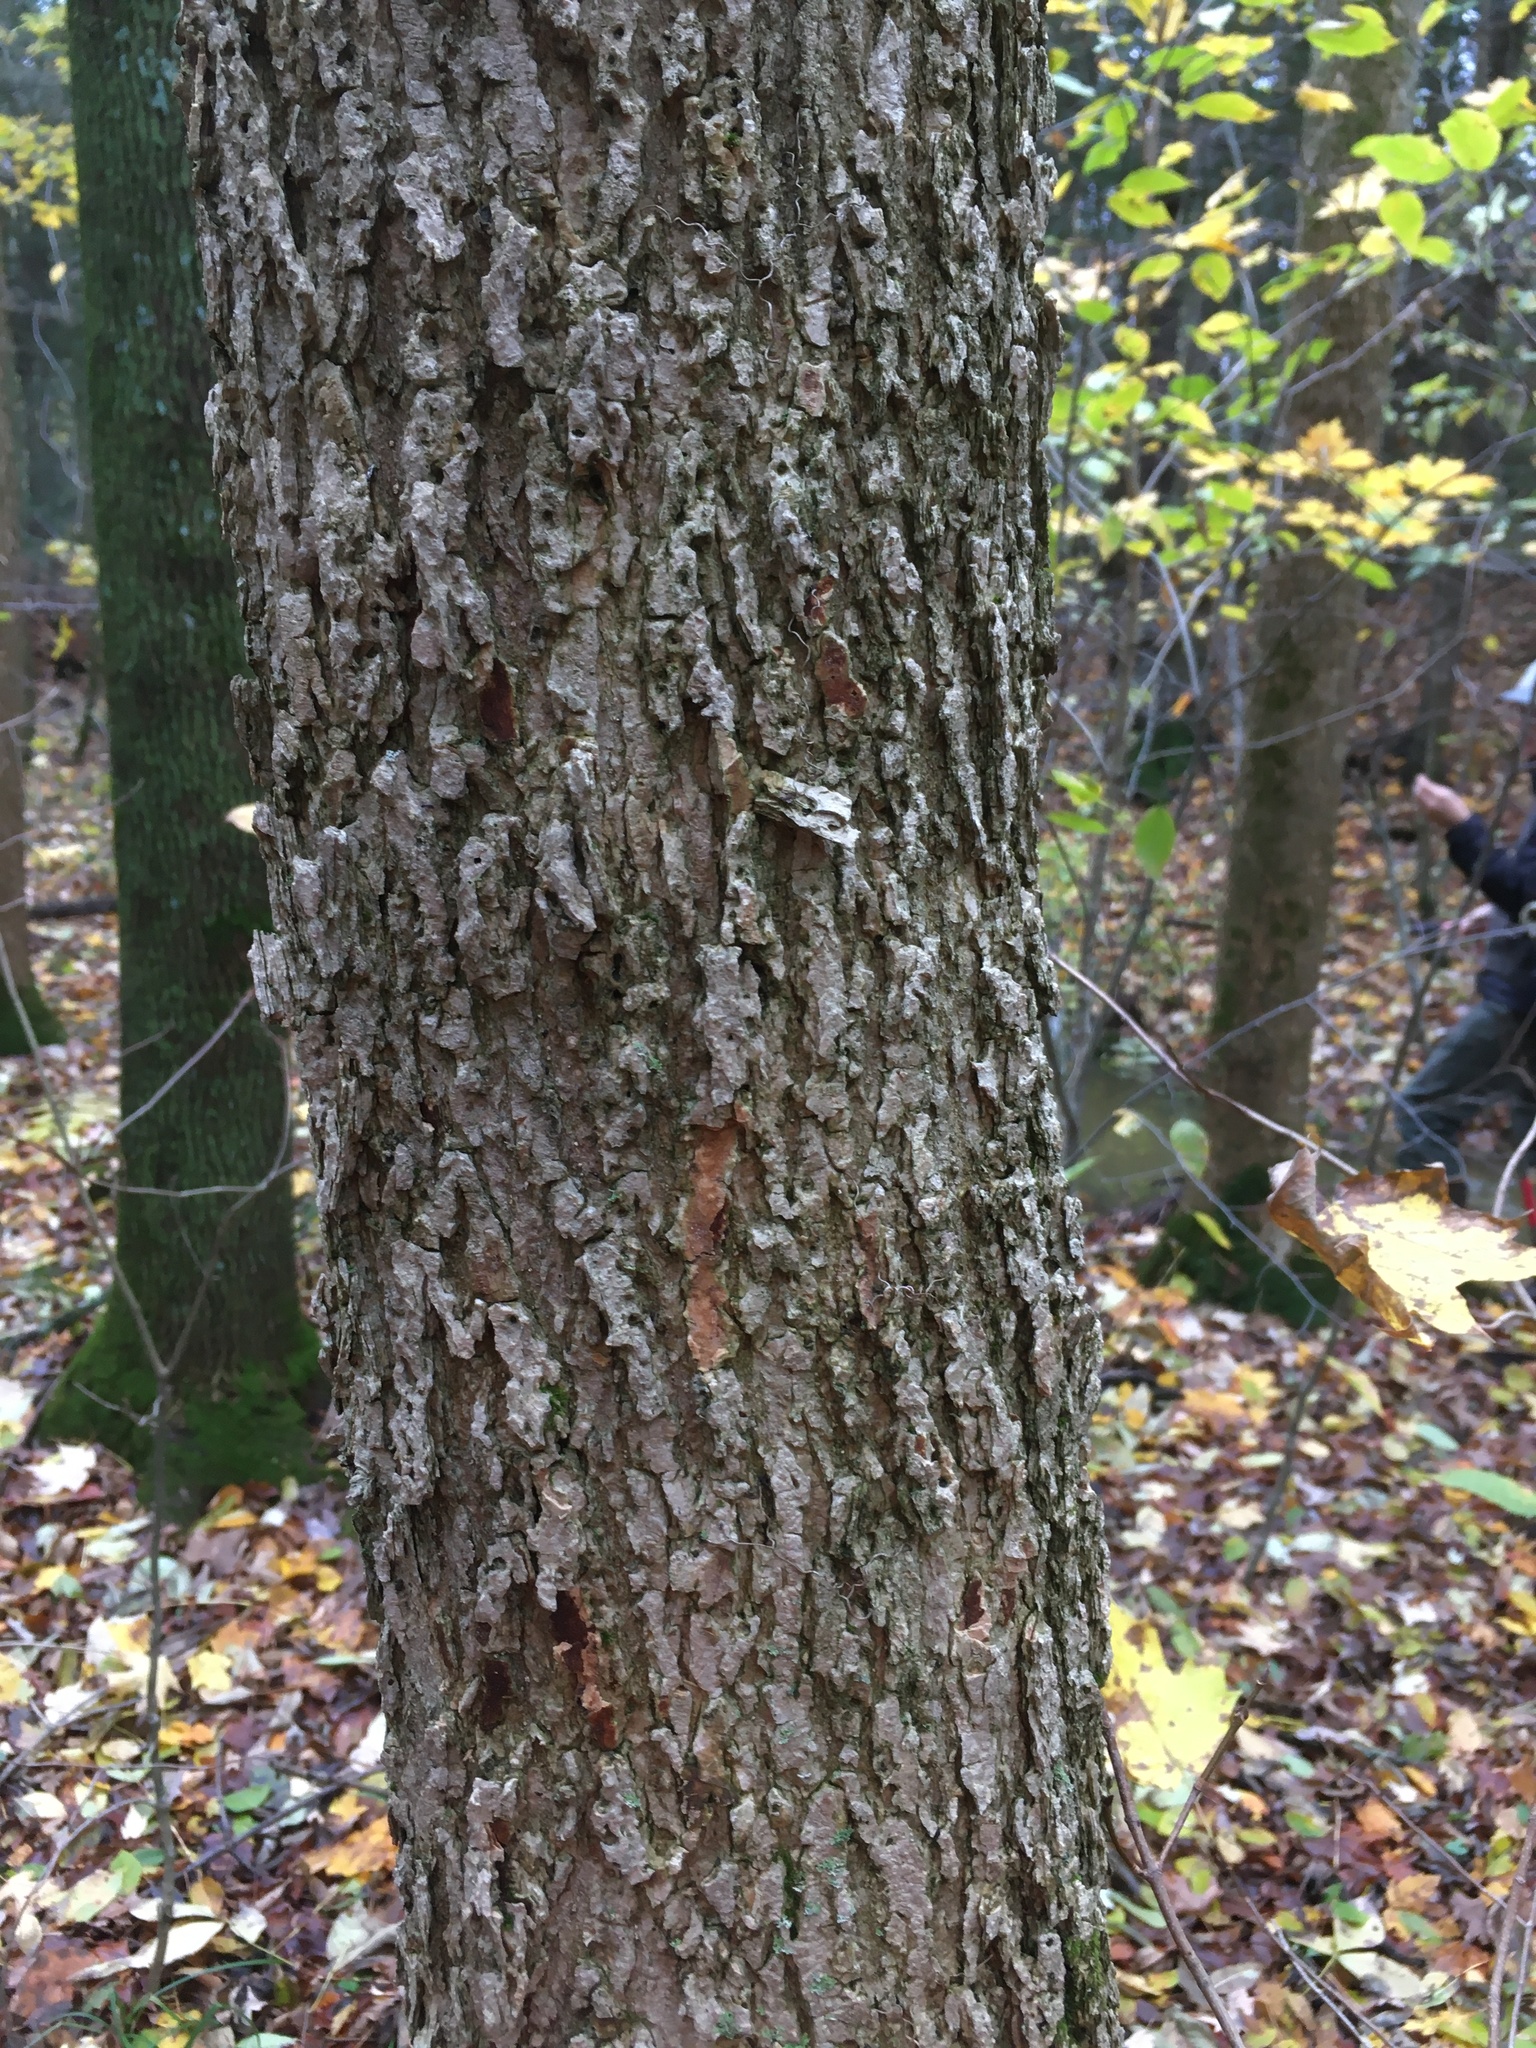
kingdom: Plantae
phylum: Tracheophyta
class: Magnoliopsida
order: Lamiales
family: Oleaceae
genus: Fraxinus
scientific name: Fraxinus nigra
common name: Black ash
